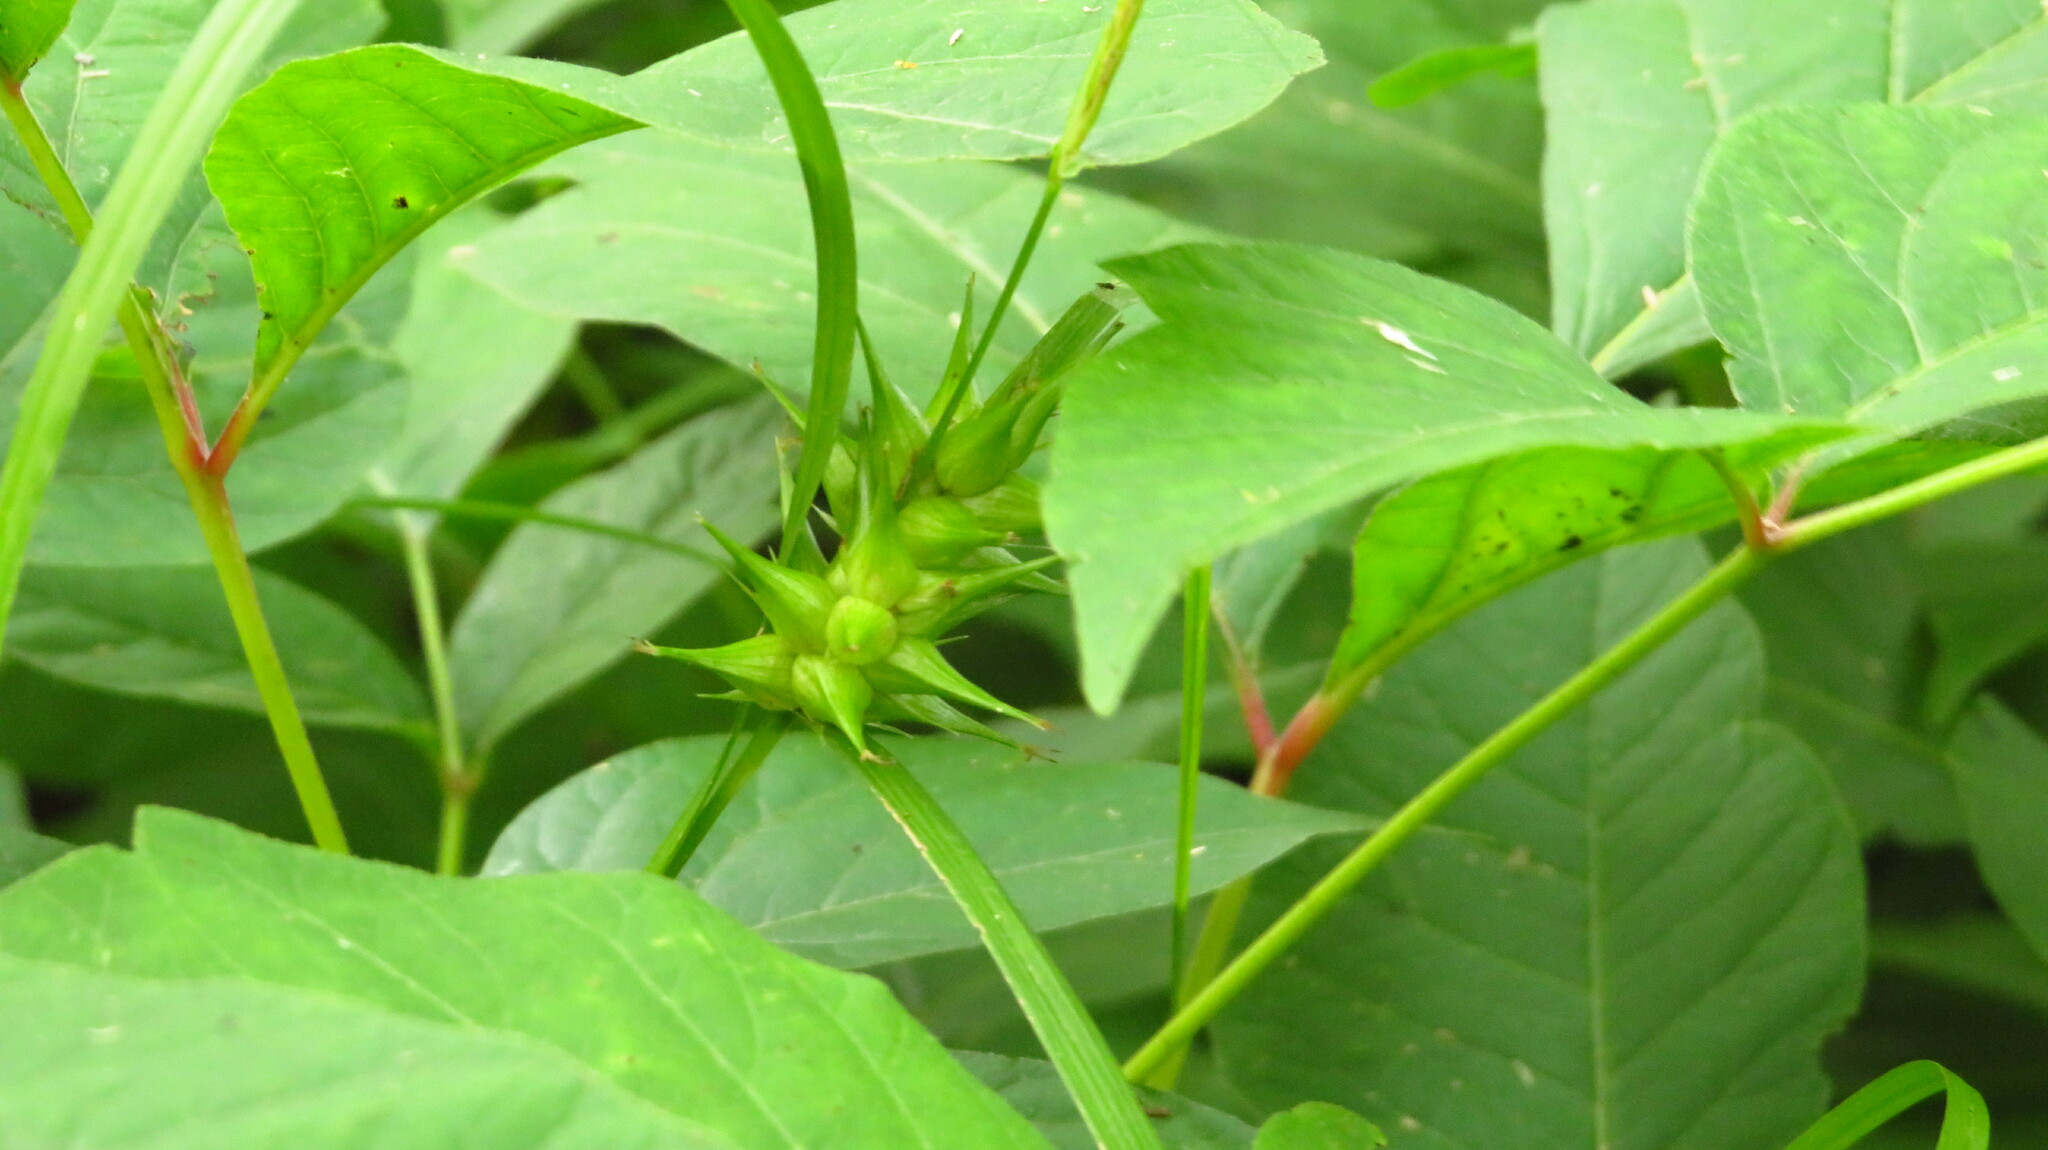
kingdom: Plantae
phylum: Tracheophyta
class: Liliopsida
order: Poales
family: Cyperaceae
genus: Carex
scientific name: Carex intumescens
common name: Greater bladder sedge
